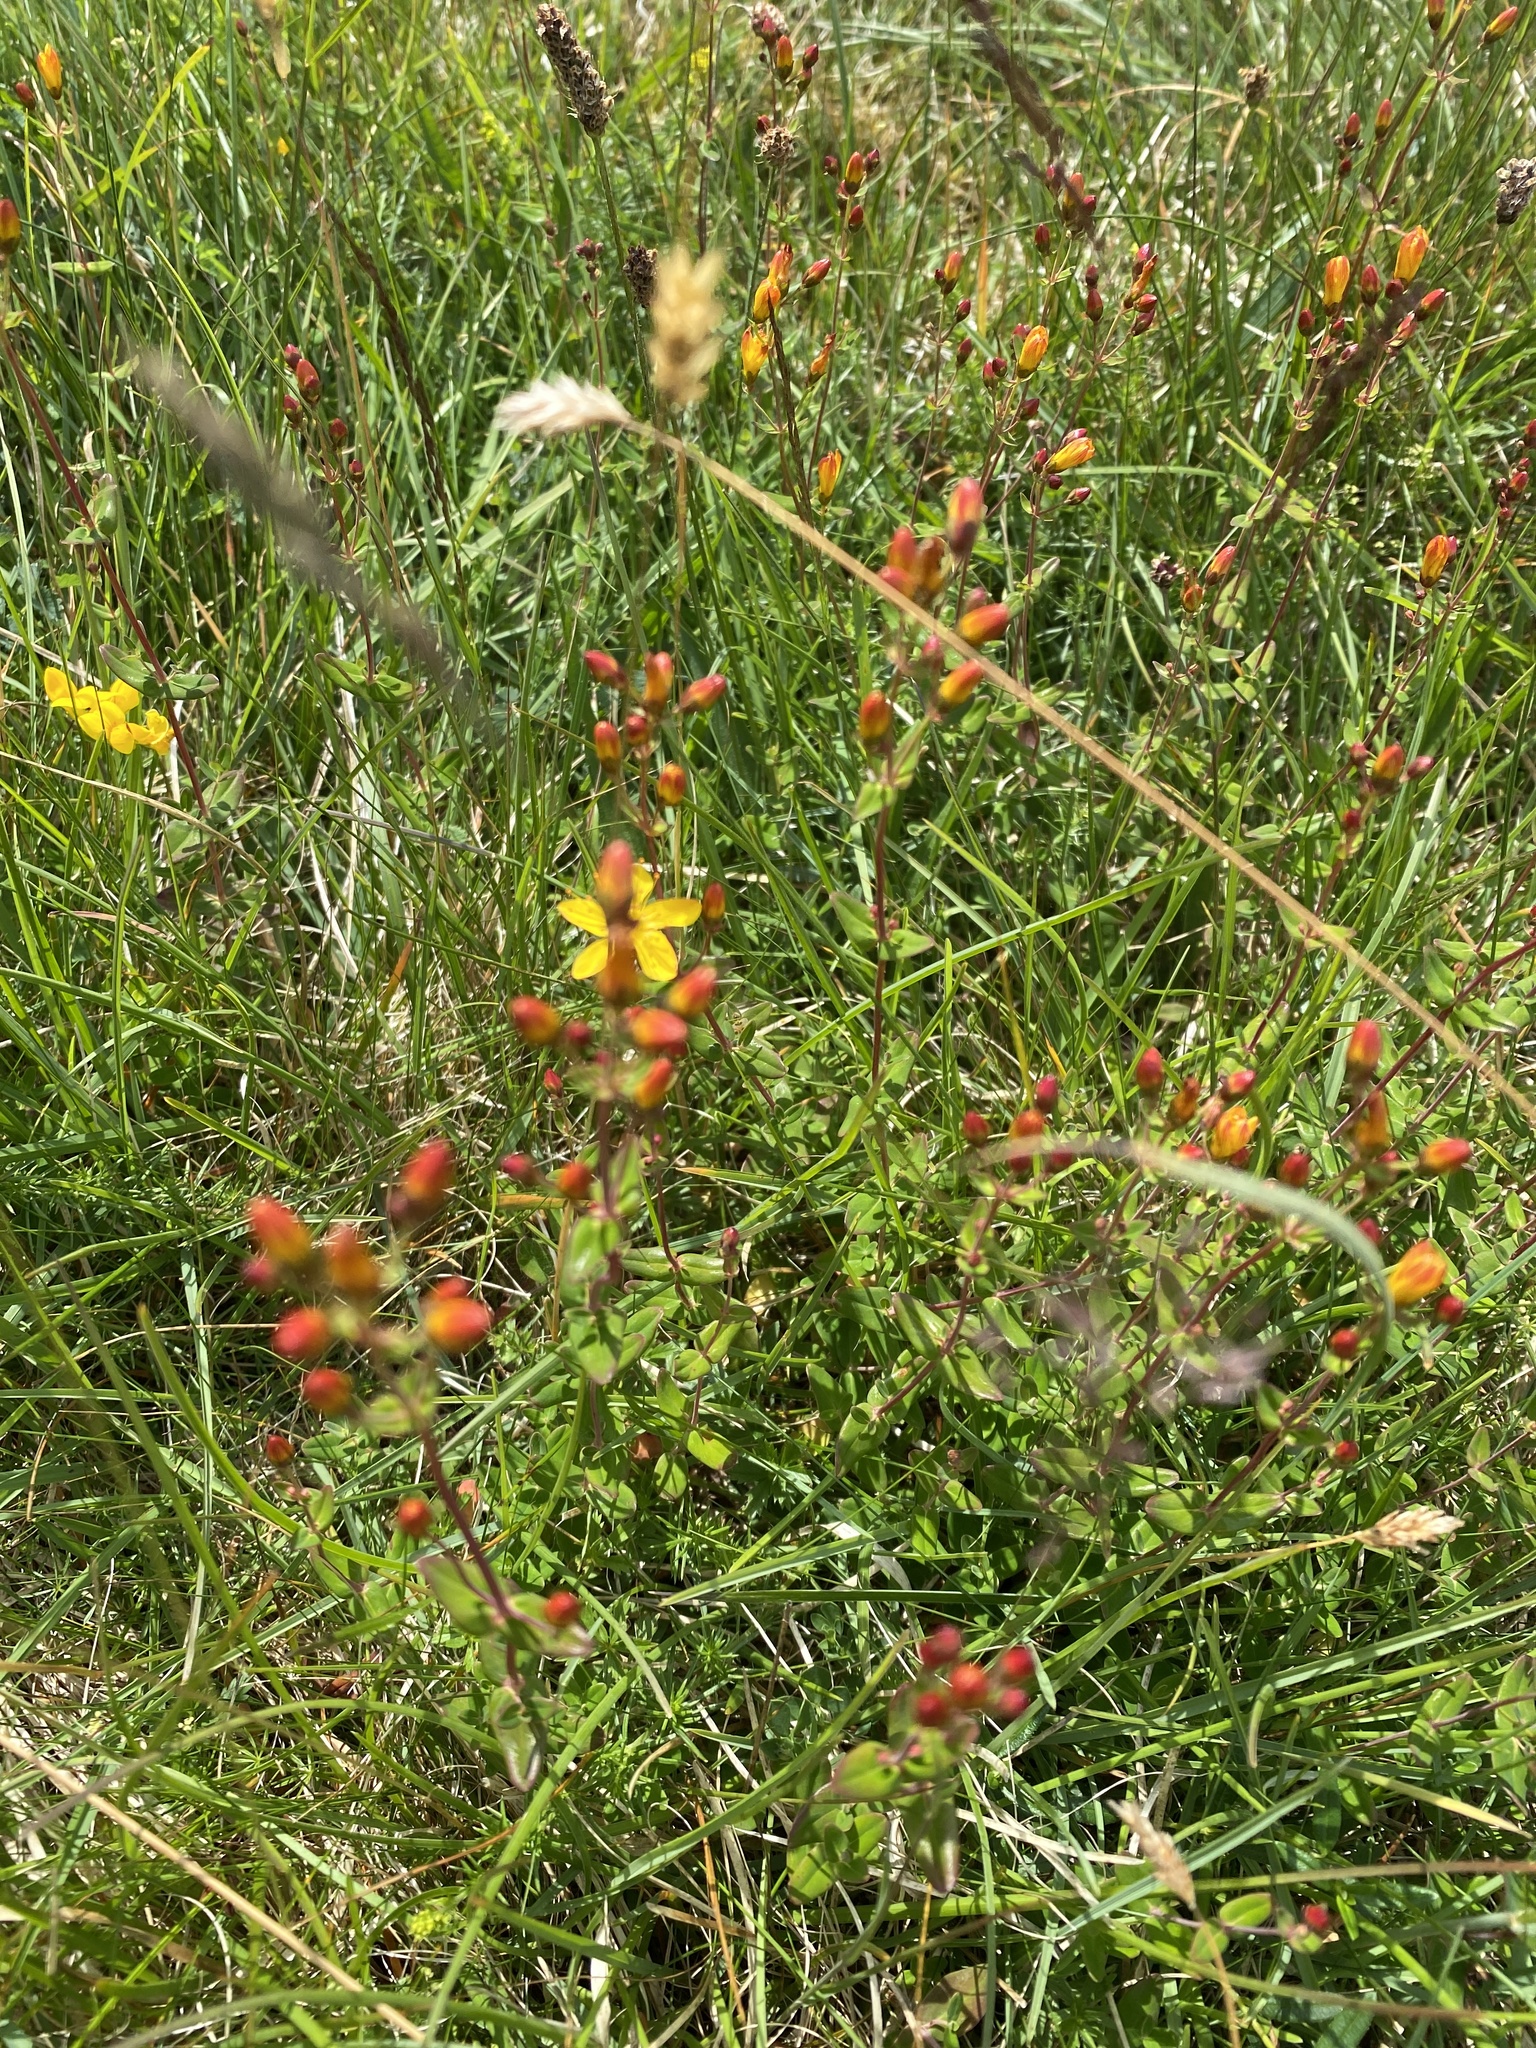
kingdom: Plantae
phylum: Tracheophyta
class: Magnoliopsida
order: Malpighiales
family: Hypericaceae
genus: Hypericum
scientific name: Hypericum pulchrum
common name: Slender st. john's-wort
